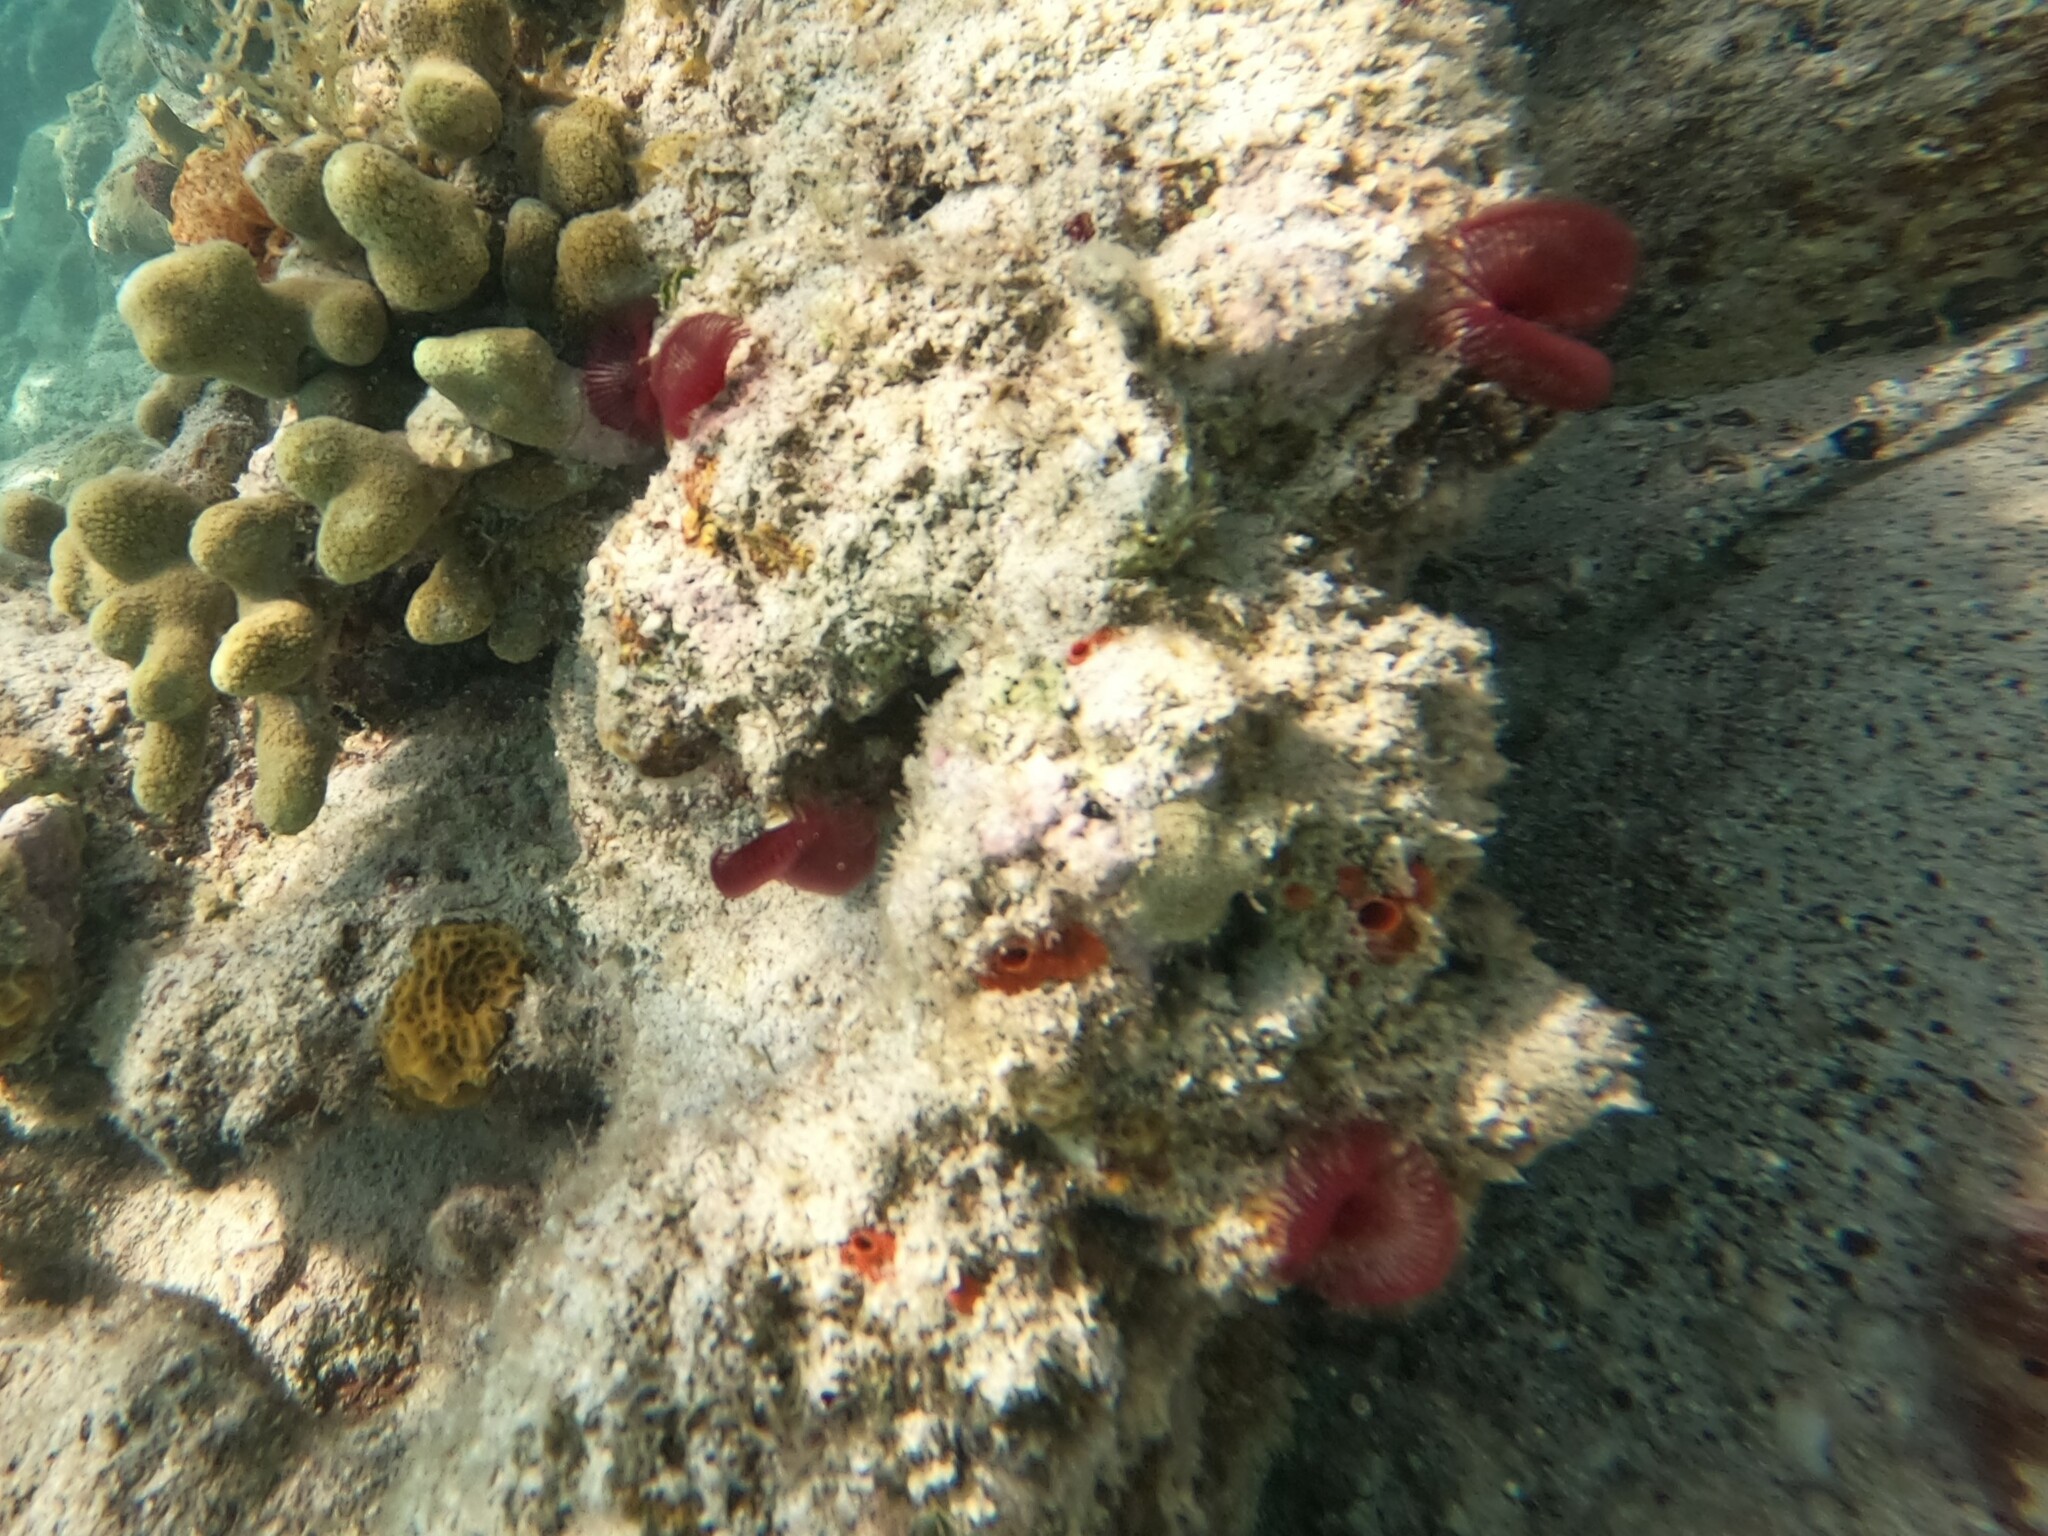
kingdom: Animalia
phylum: Annelida
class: Polychaeta
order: Sabellida
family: Sabellidae
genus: Anamobaea
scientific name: Anamobaea orstedii
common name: Split-crown feather duster
